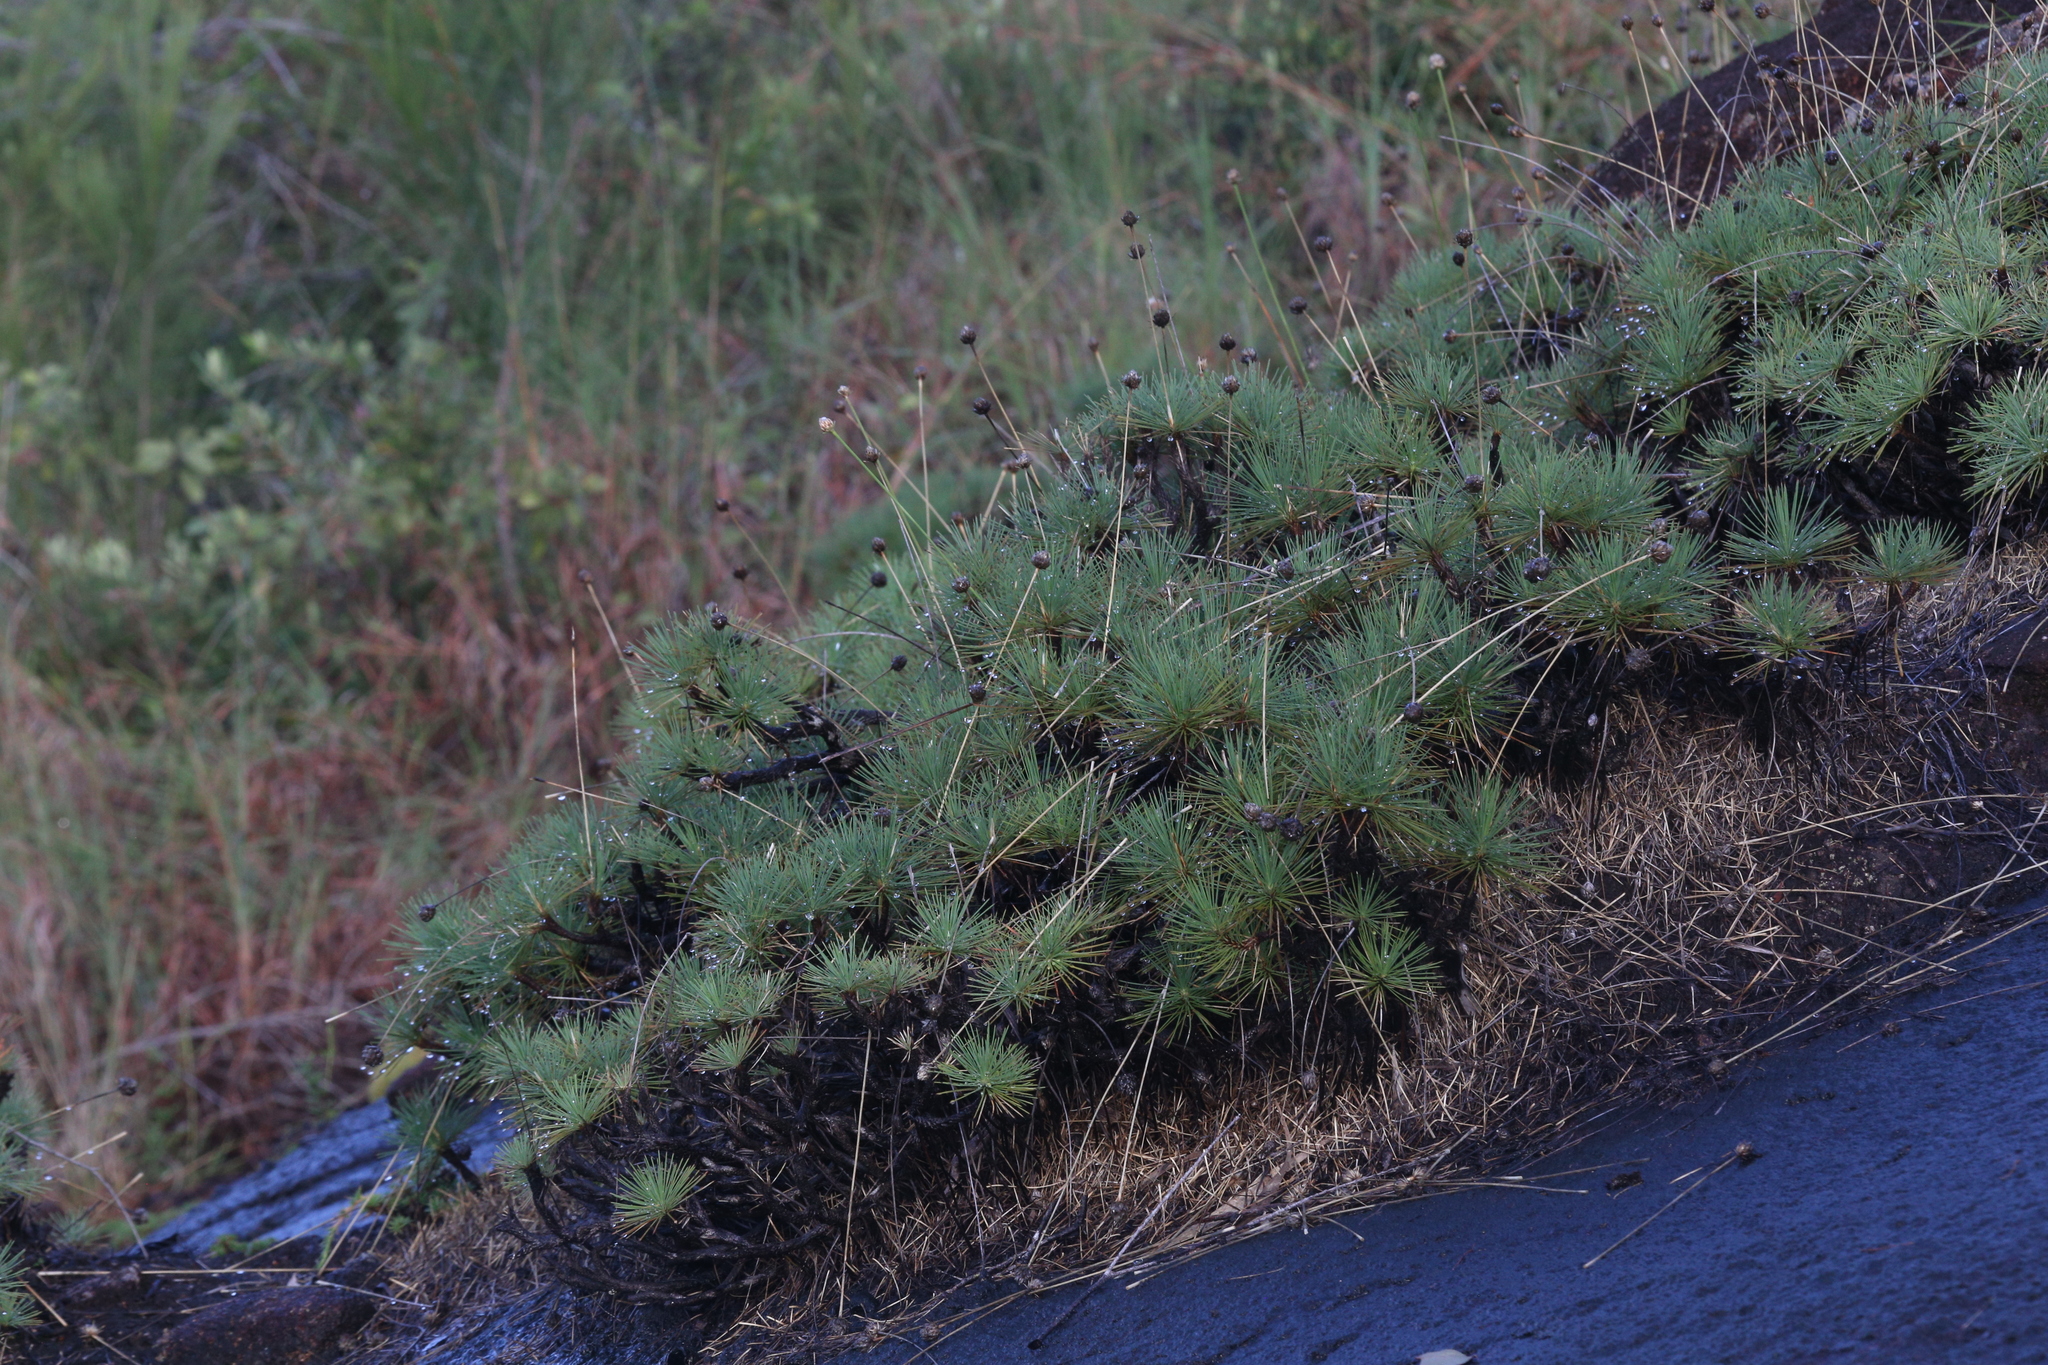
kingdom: Plantae
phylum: Tracheophyta
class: Liliopsida
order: Asparagales
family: Boryaceae
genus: Borya
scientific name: Borya septentrionalis
